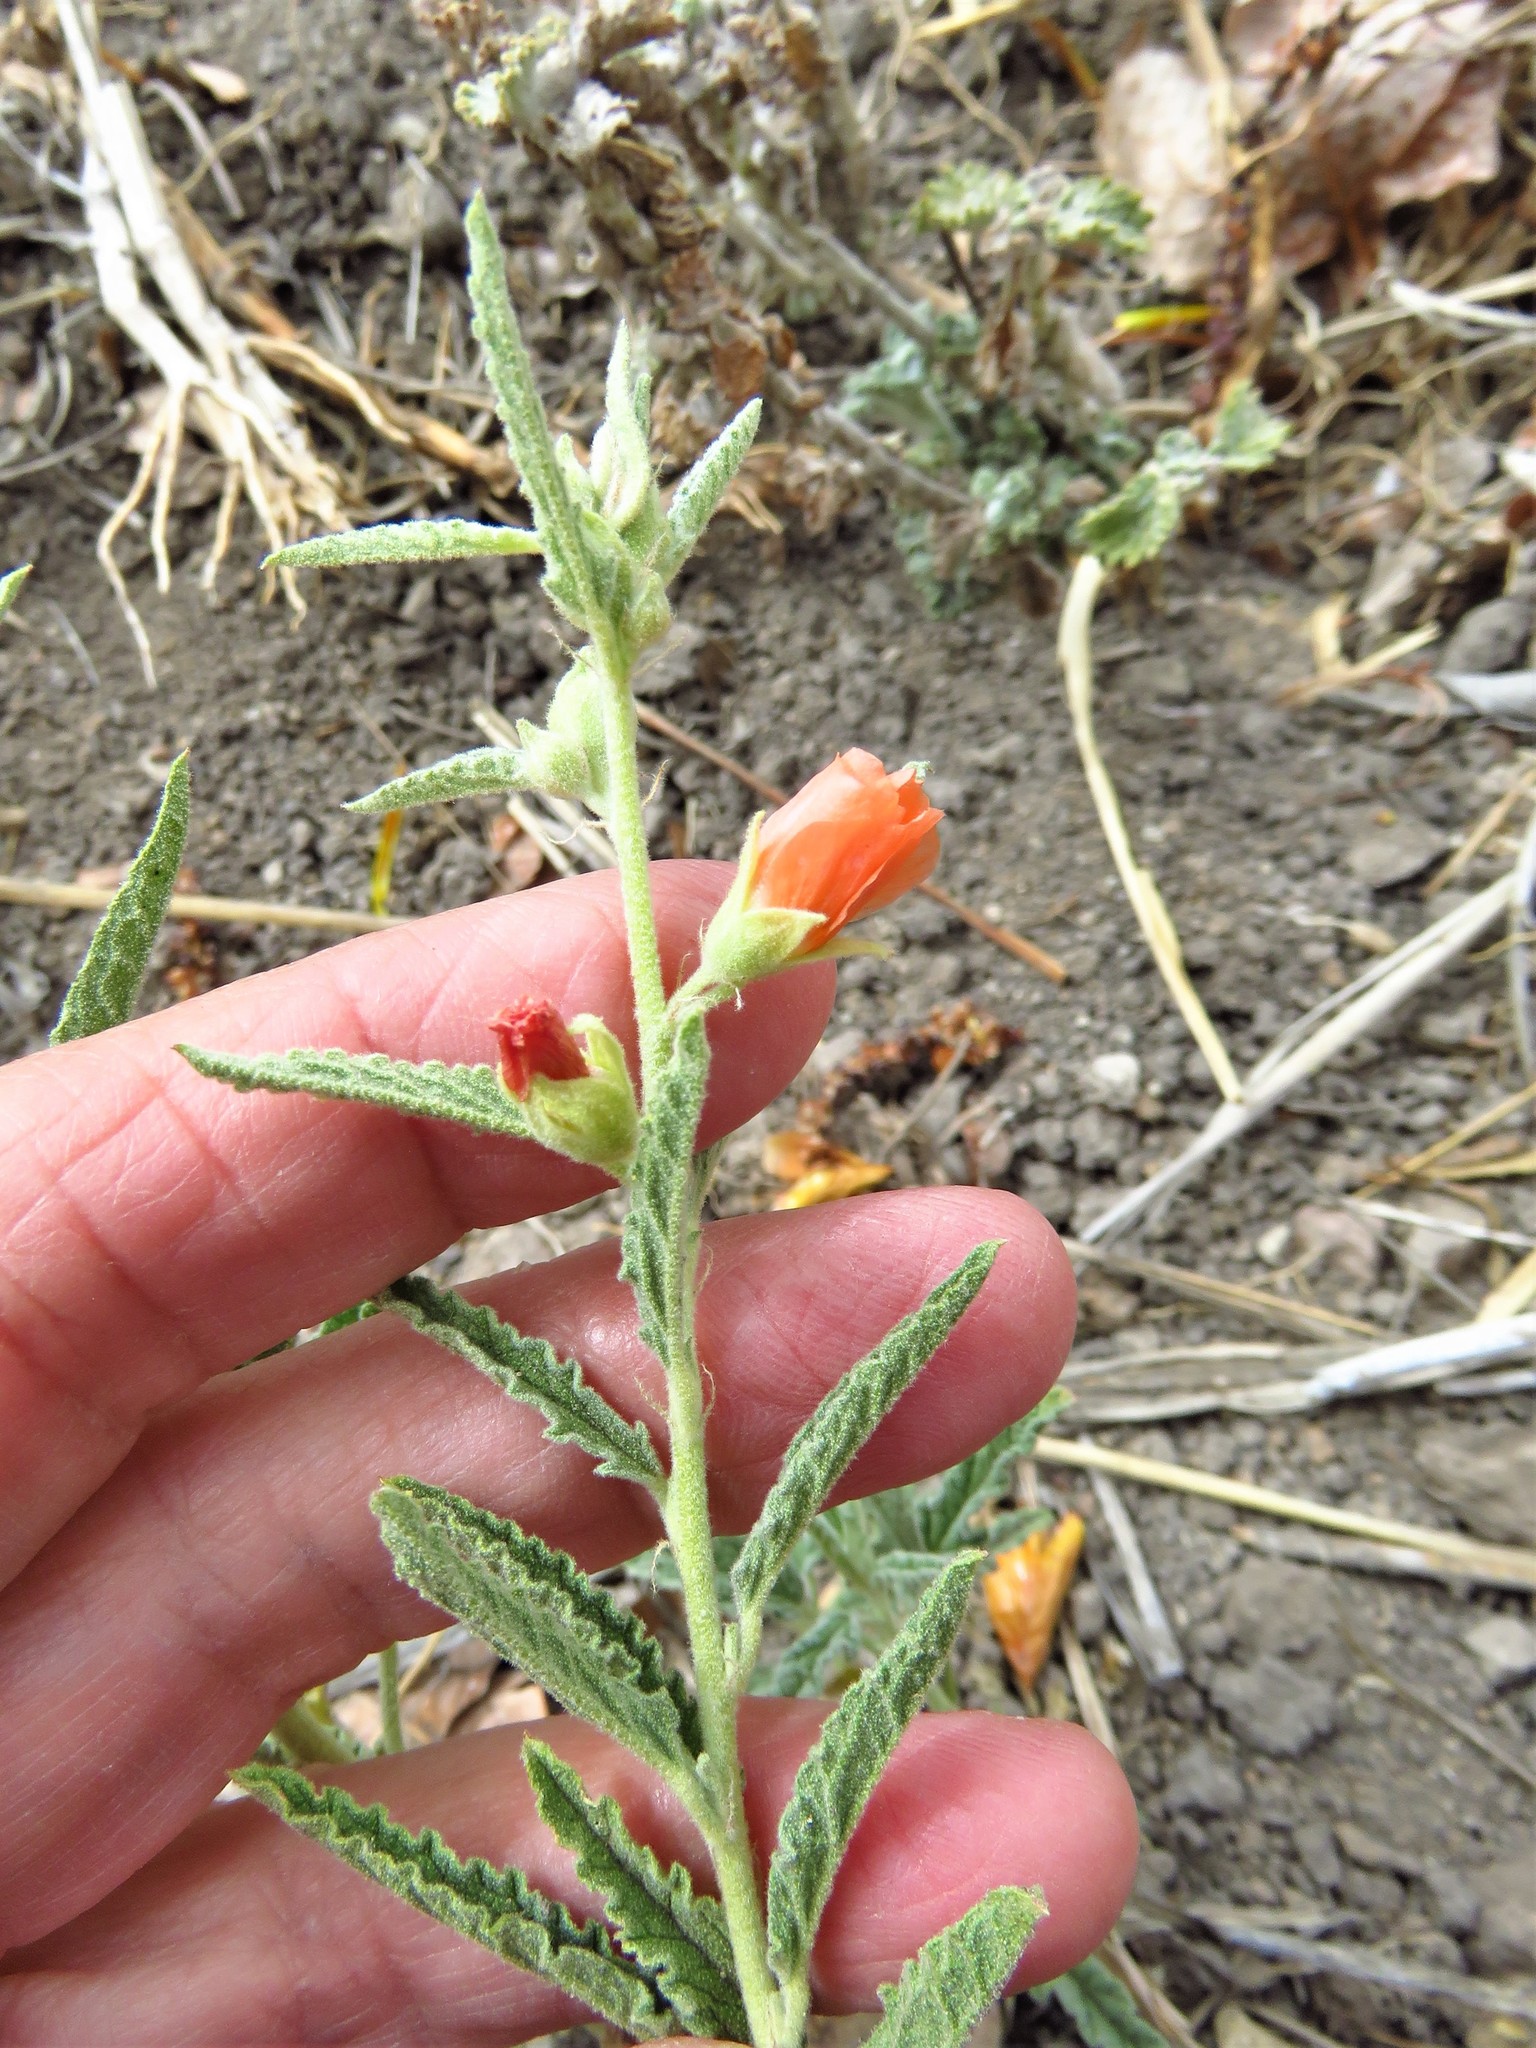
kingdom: Plantae
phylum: Tracheophyta
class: Magnoliopsida
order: Malvales
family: Malvaceae
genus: Sphaeralcea
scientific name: Sphaeralcea angustifolia
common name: Copper globe-mallow
